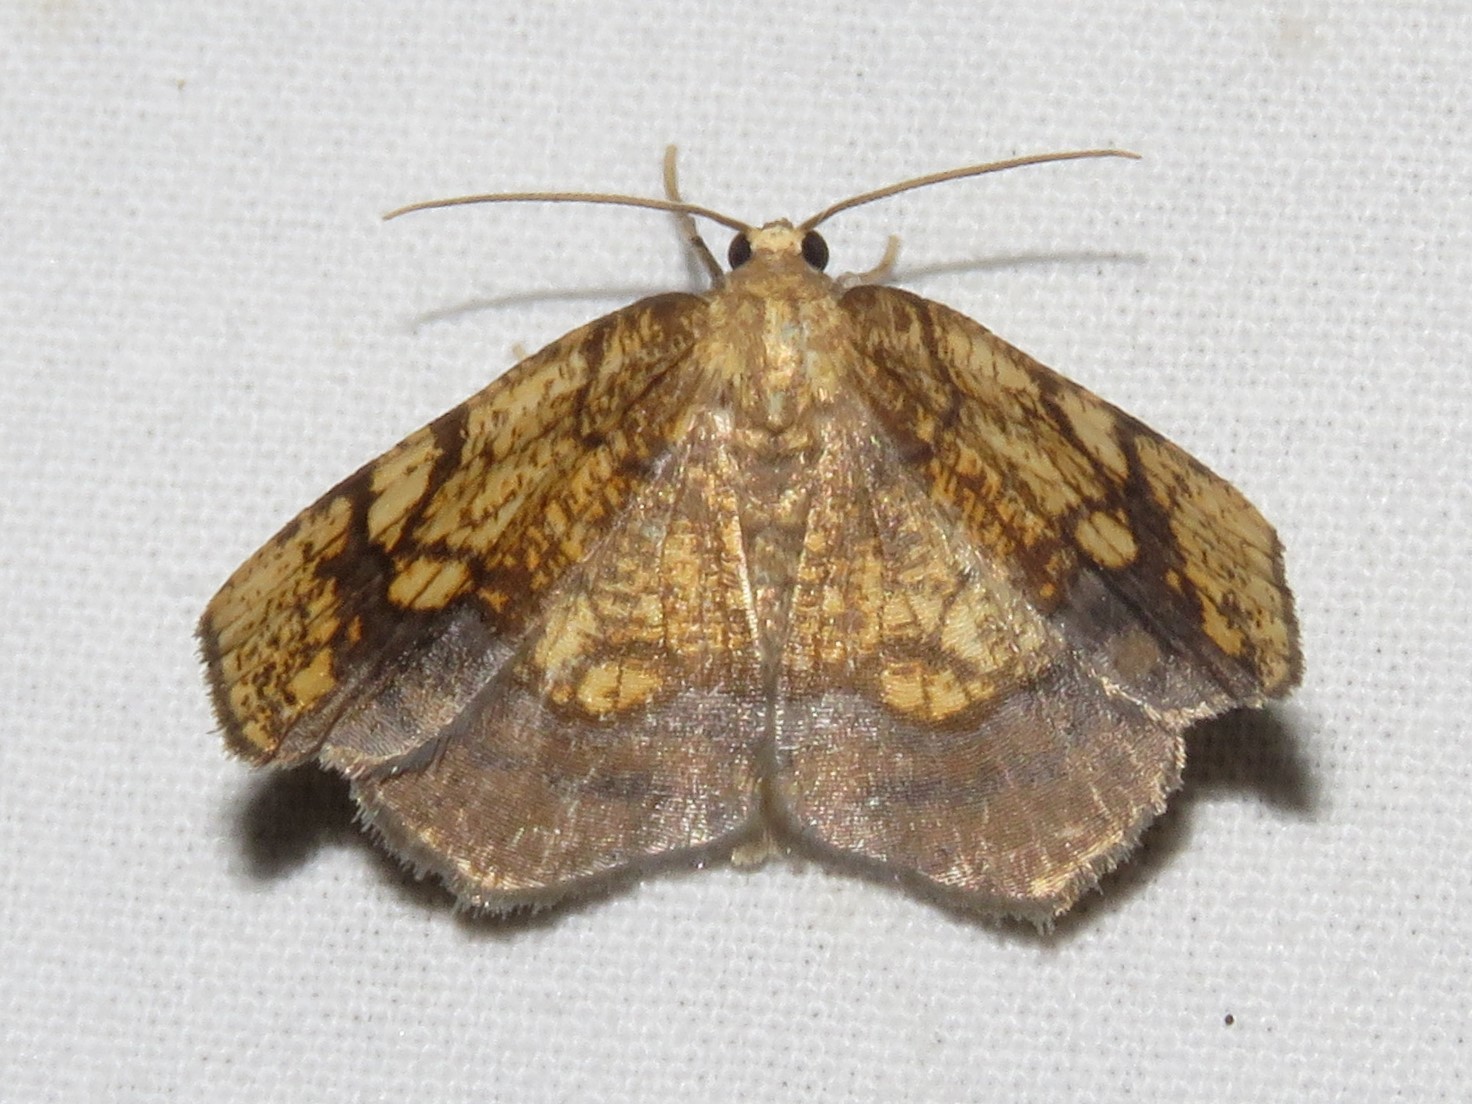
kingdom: Animalia
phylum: Arthropoda
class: Insecta
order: Lepidoptera
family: Geometridae
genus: Nematocampa
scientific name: Nematocampa resistaria
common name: Horned spanworm moth
